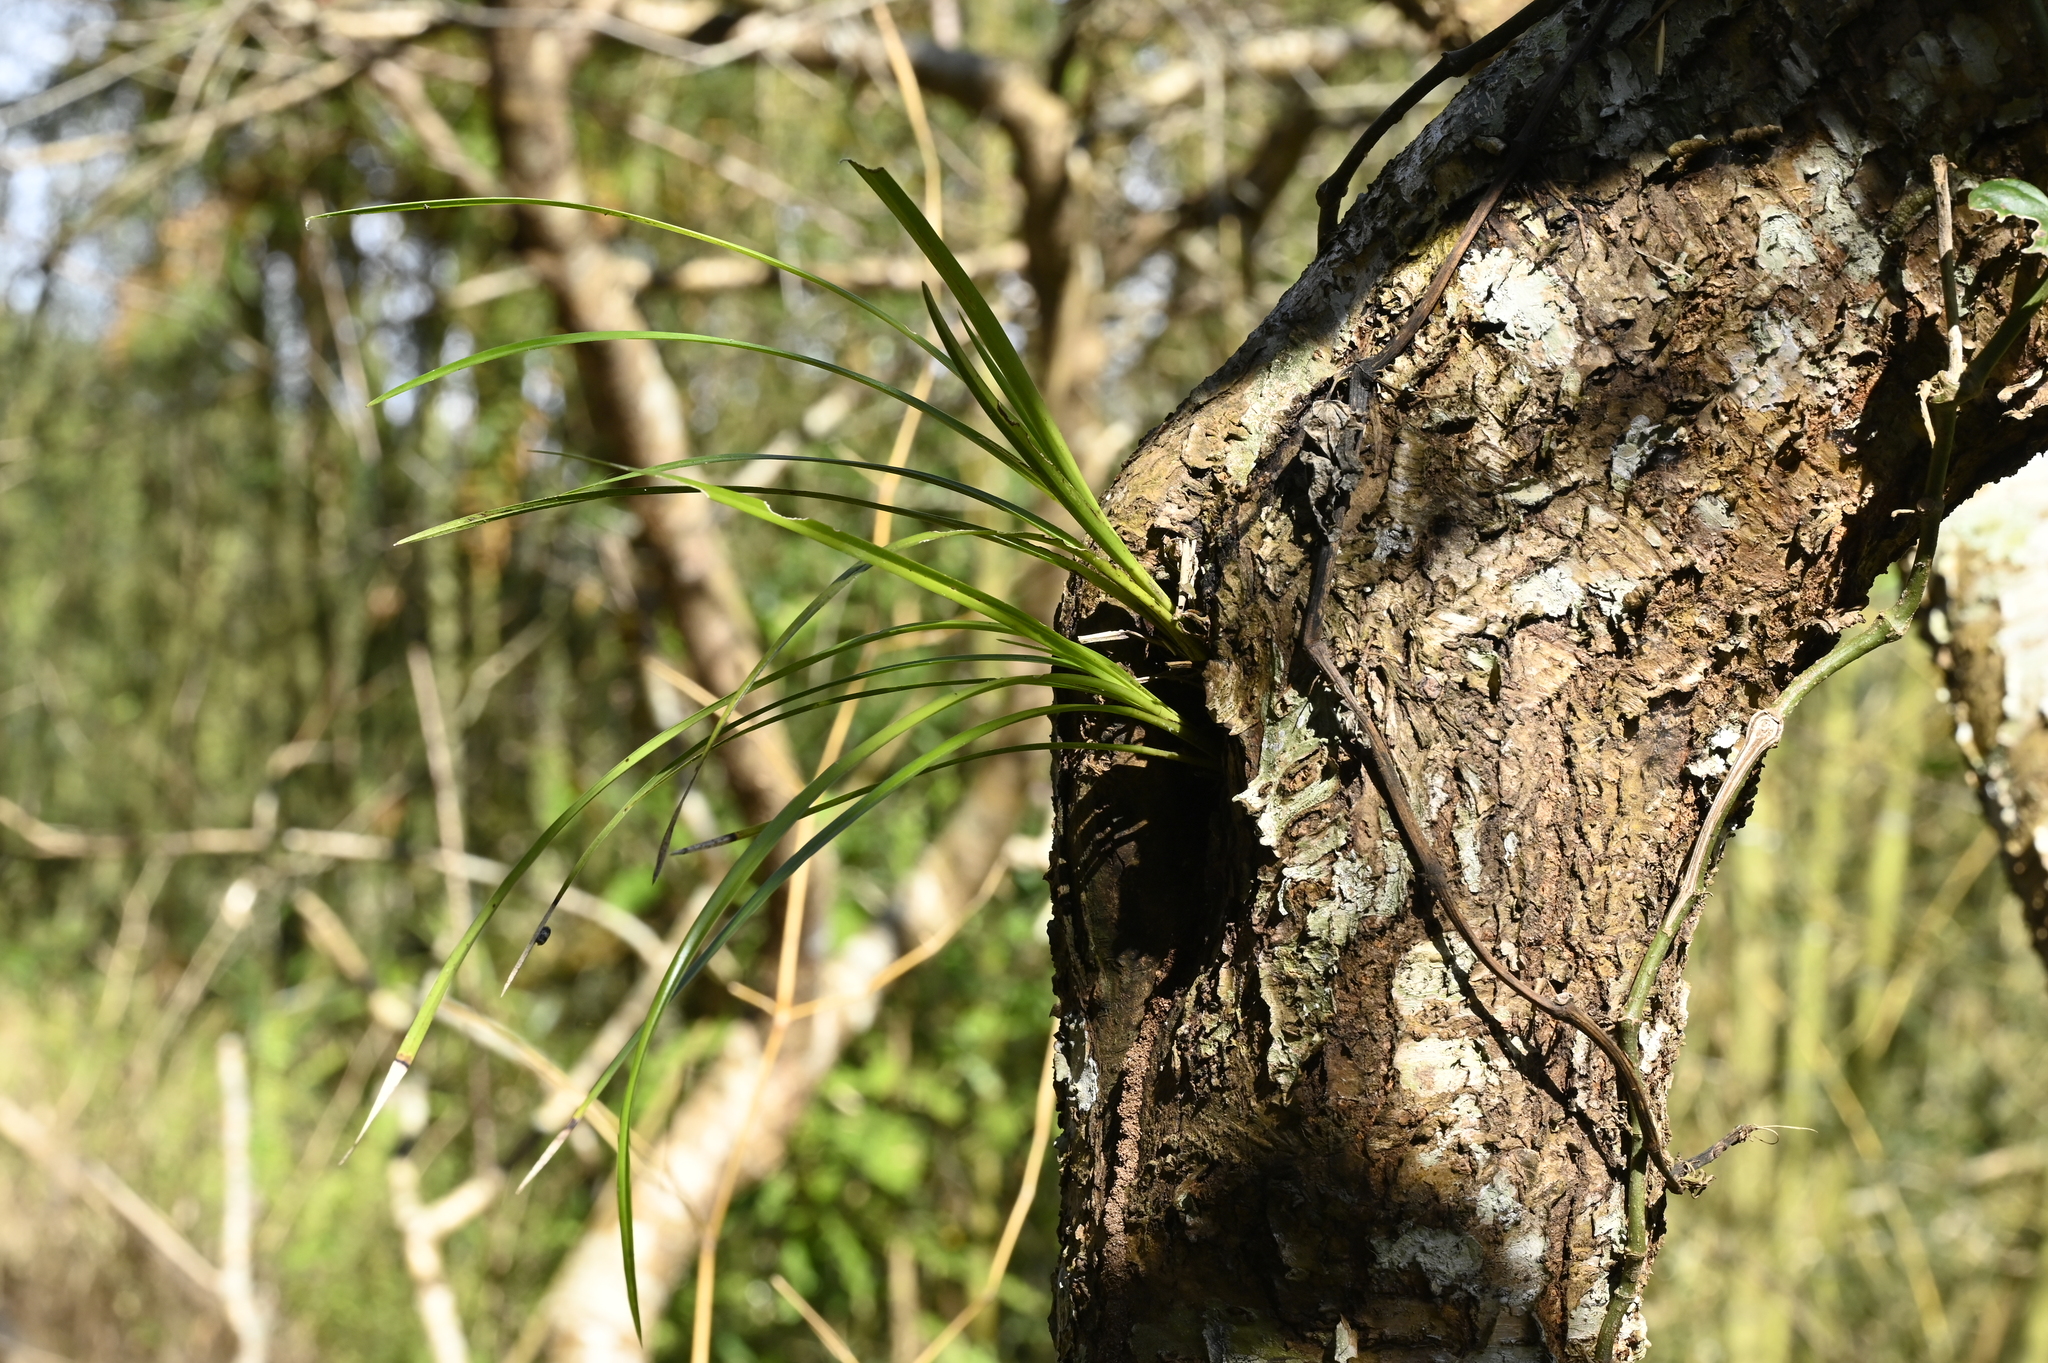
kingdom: Plantae
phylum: Tracheophyta
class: Liliopsida
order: Asparagales
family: Orchidaceae
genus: Cymbidium
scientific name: Cymbidium dayanum
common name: Orchid
